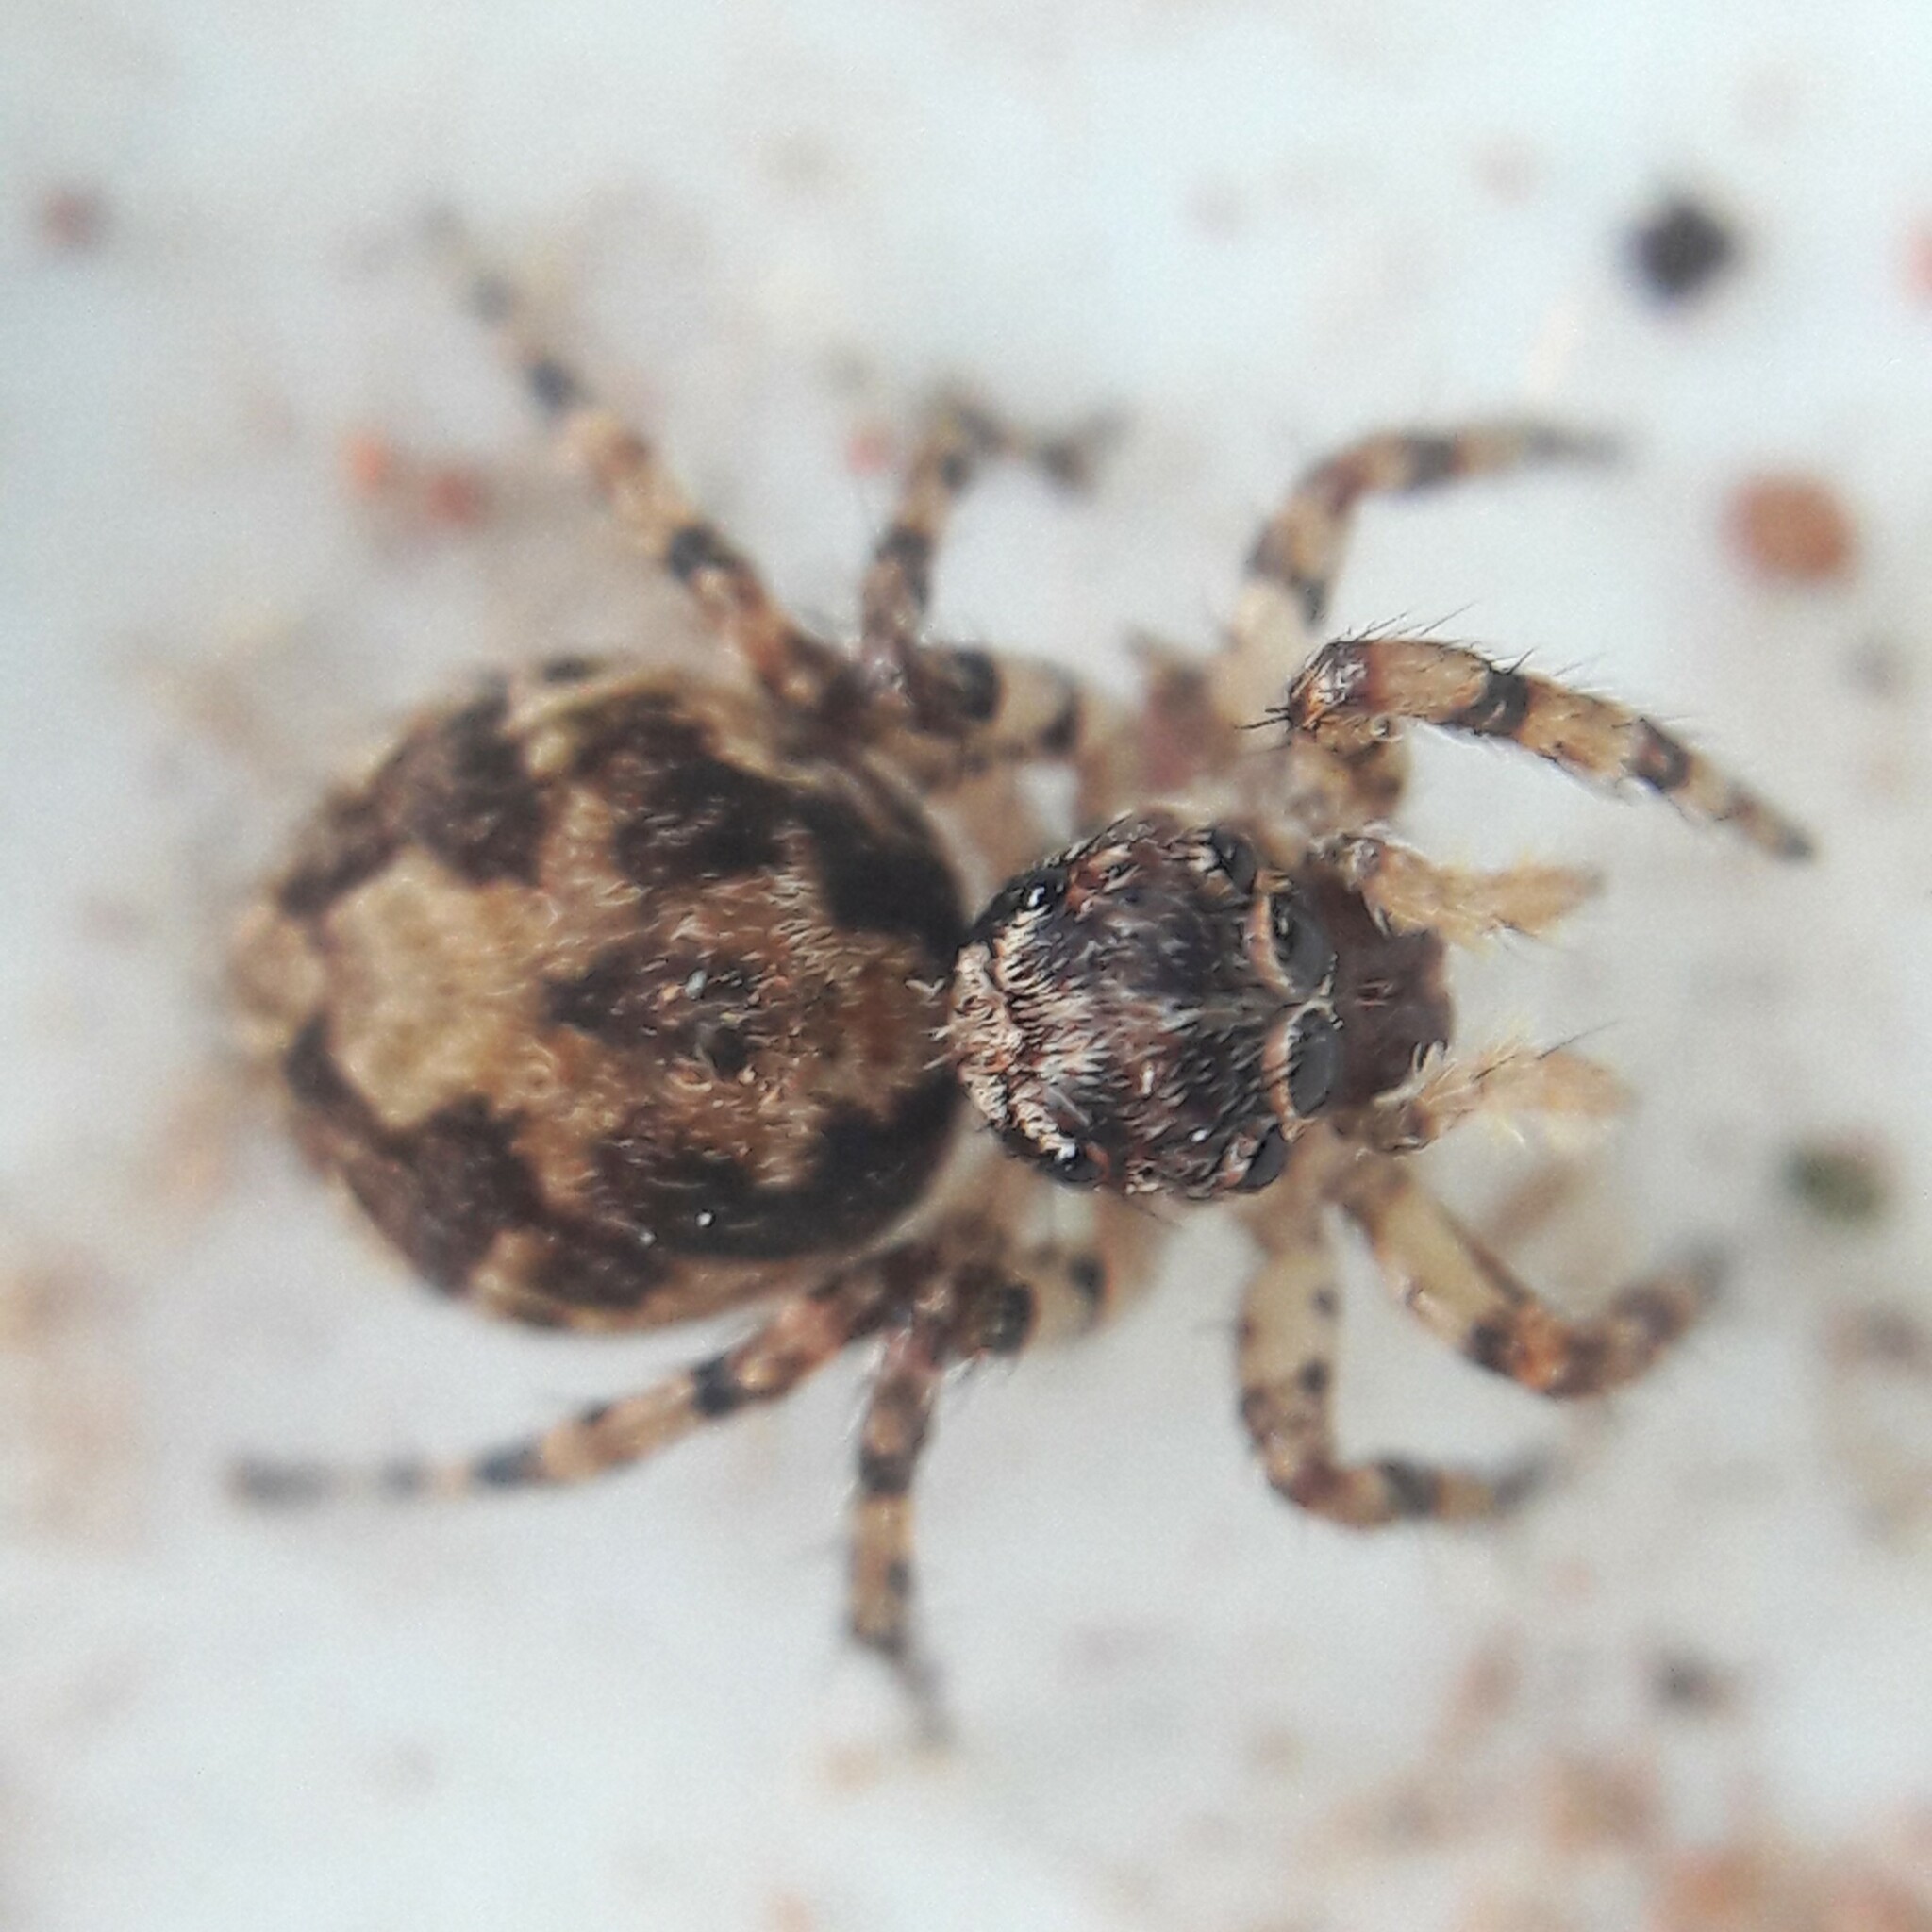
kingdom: Animalia
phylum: Arthropoda
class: Arachnida
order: Araneae
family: Salticidae
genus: Marma
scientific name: Marma nigritarsis
